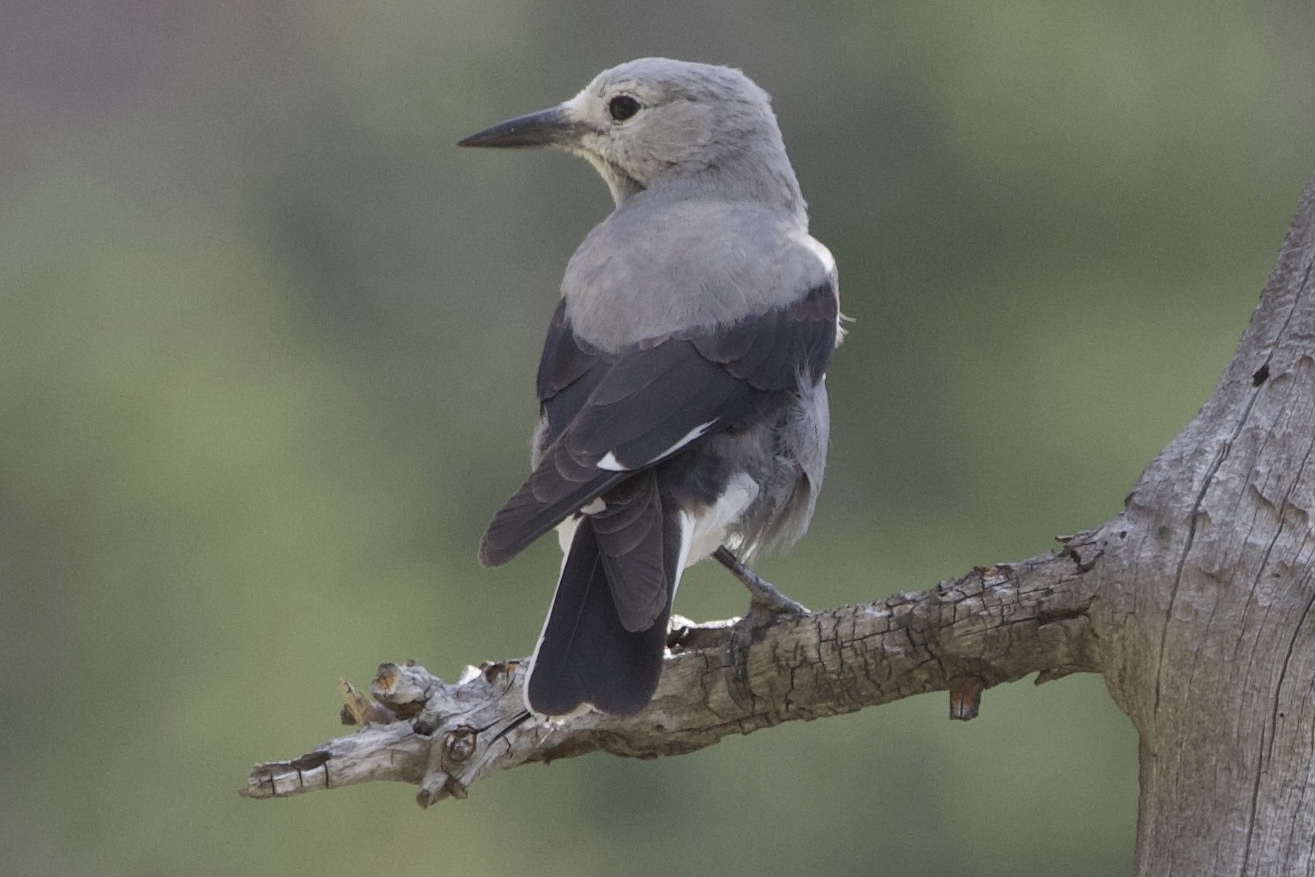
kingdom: Animalia
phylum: Chordata
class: Aves
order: Passeriformes
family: Corvidae
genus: Nucifraga
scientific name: Nucifraga columbiana
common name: Clark's nutcracker
